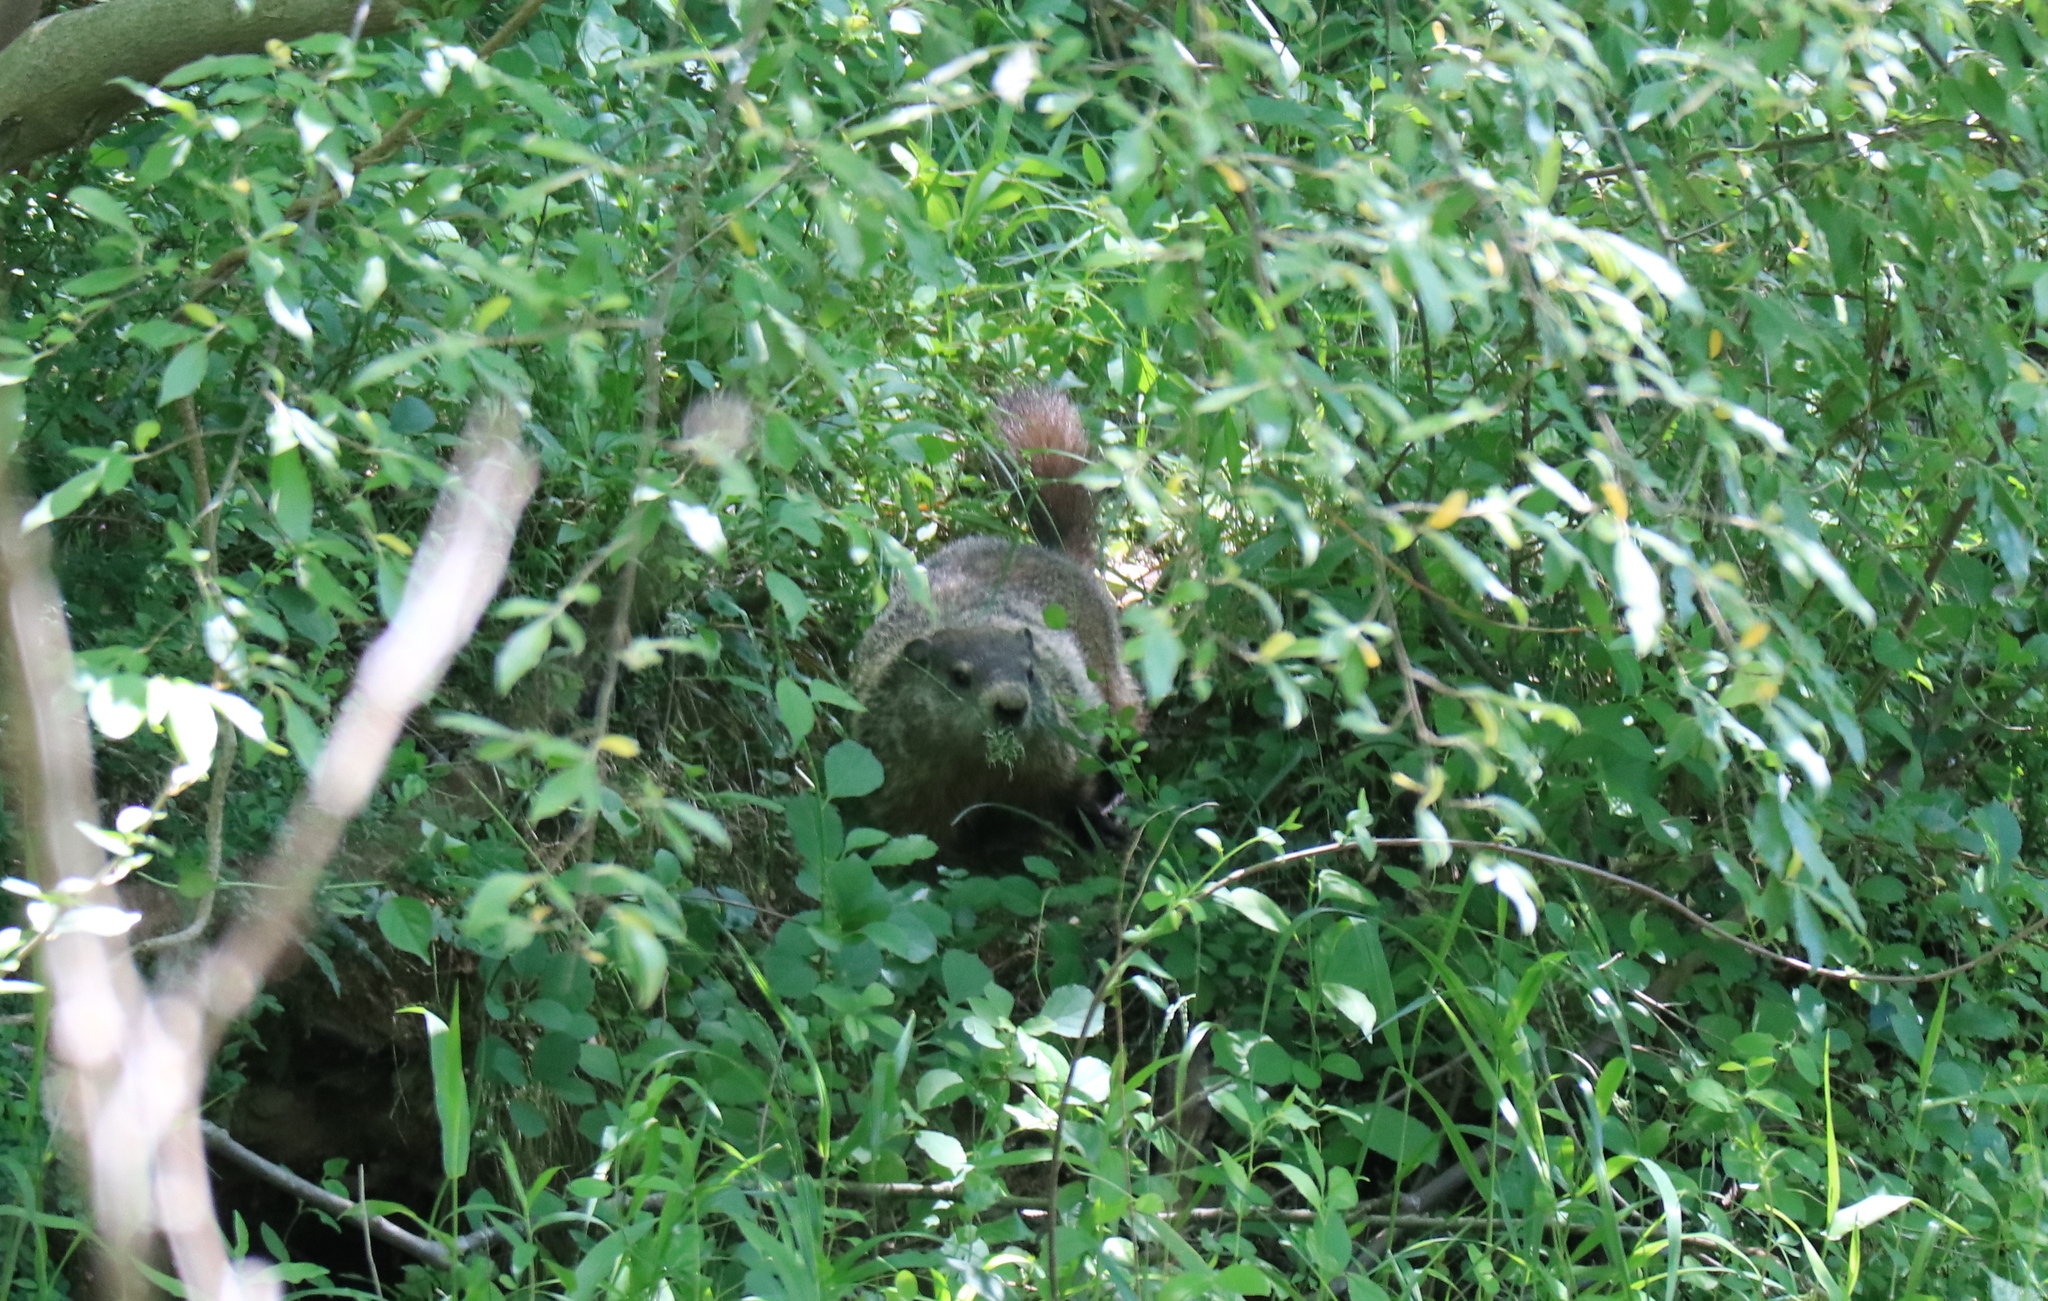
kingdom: Animalia
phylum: Chordata
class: Mammalia
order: Rodentia
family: Sciuridae
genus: Marmota
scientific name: Marmota monax
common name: Groundhog
